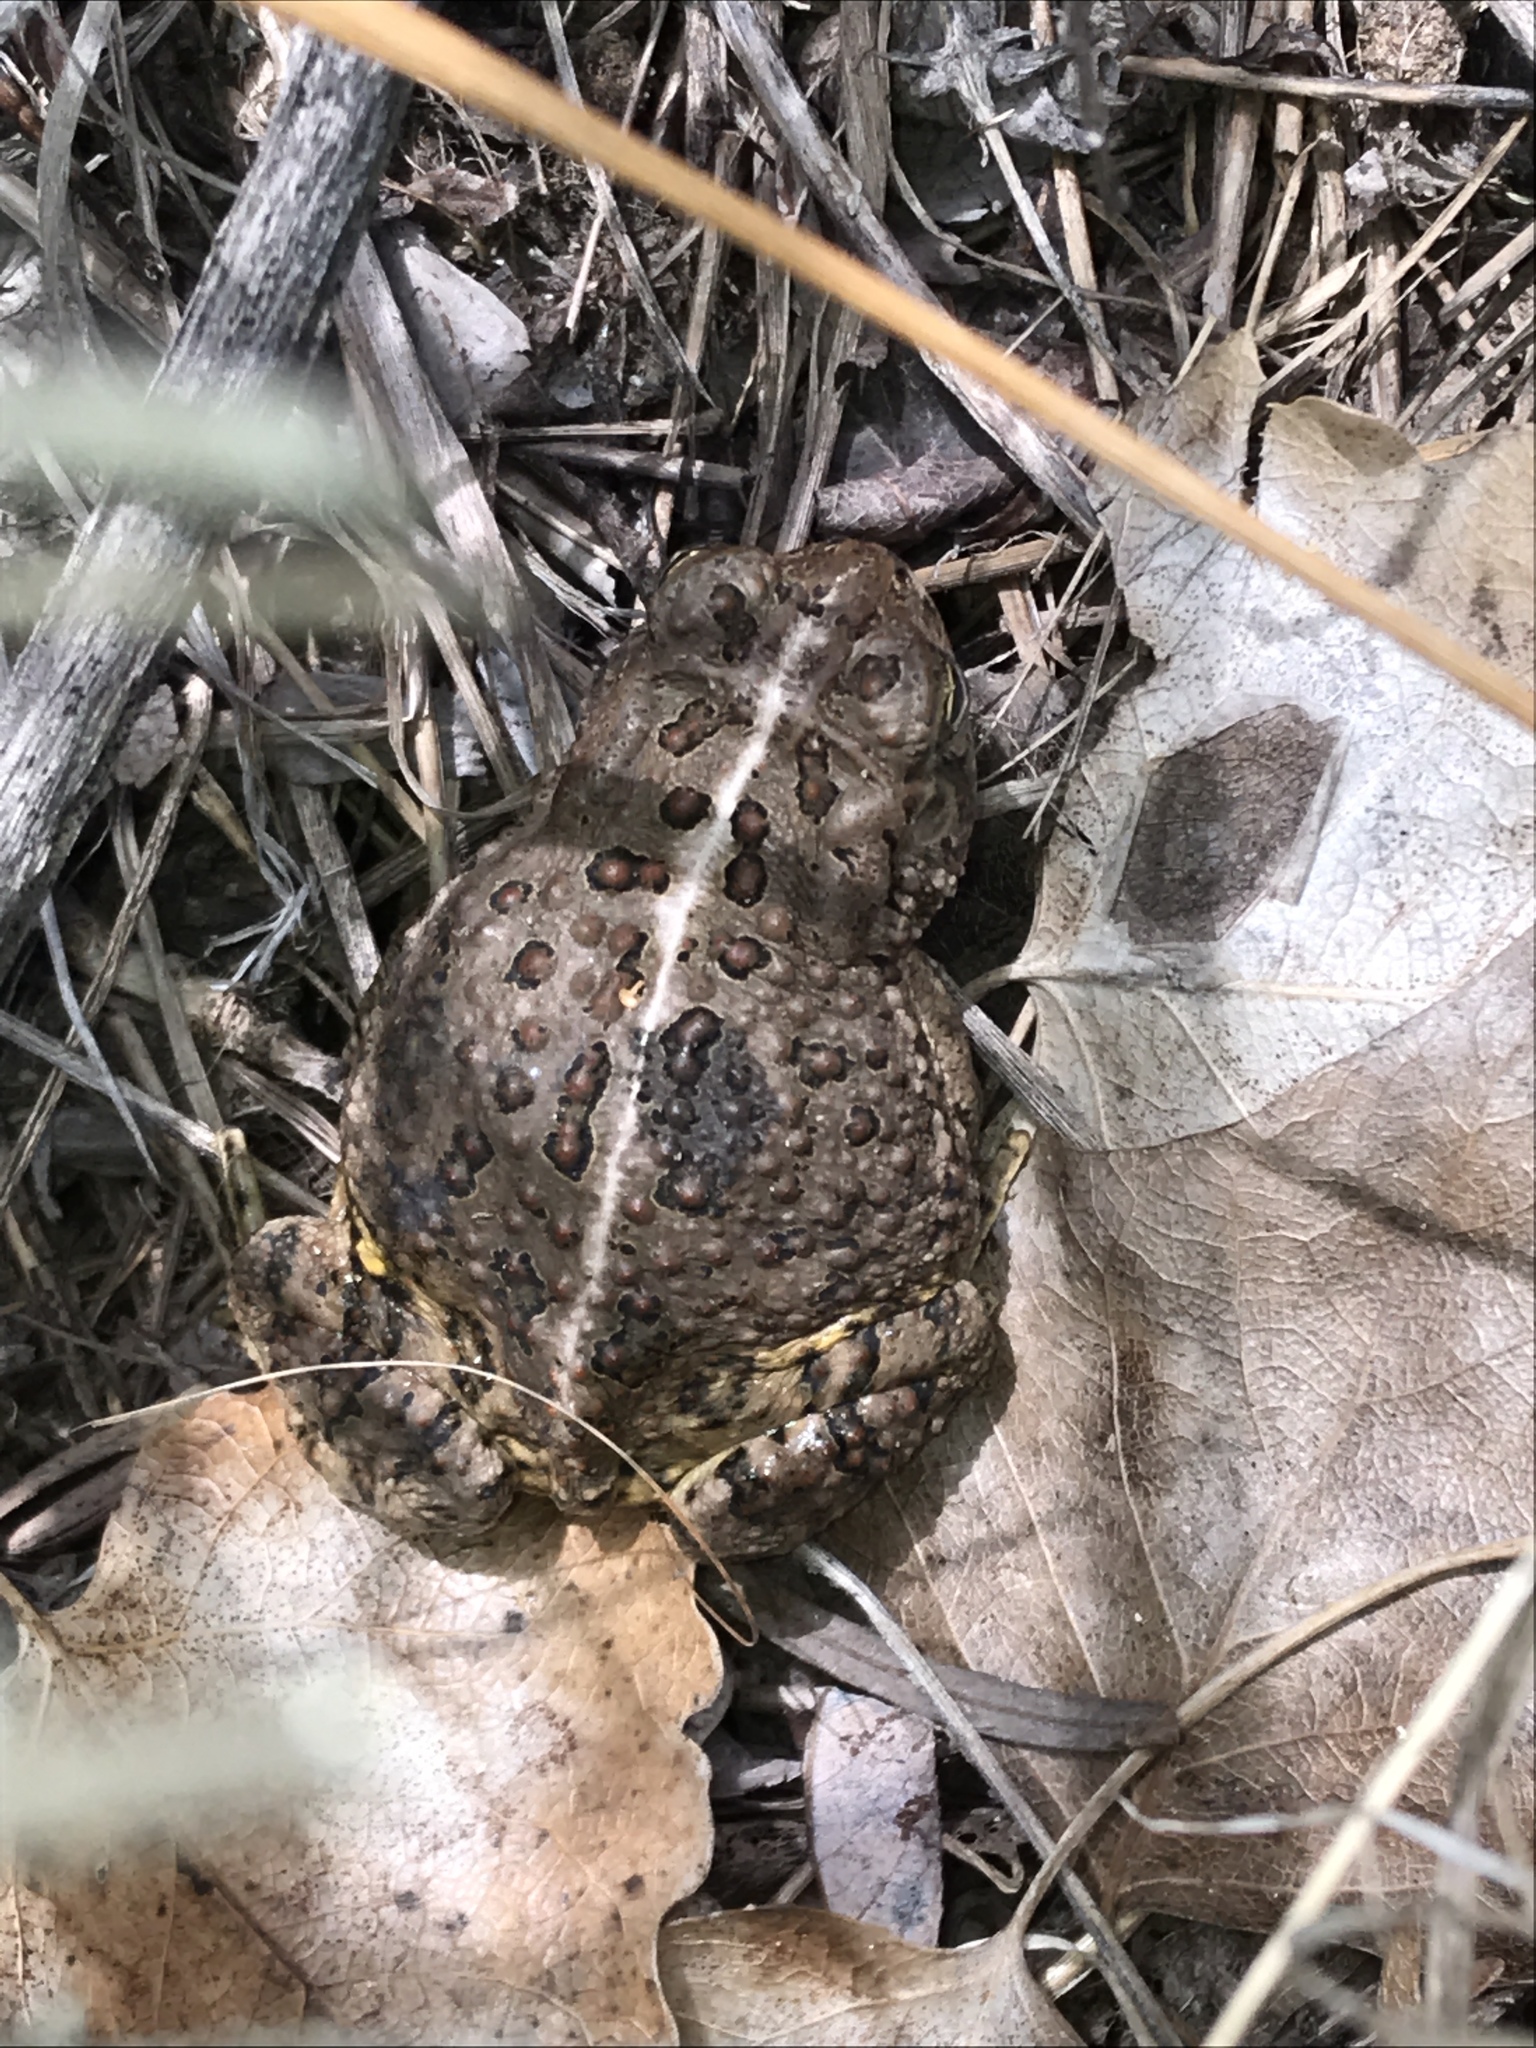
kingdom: Animalia
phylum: Chordata
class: Amphibia
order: Anura
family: Bufonidae
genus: Anaxyrus
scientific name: Anaxyrus woodhousii
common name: Woodhouse's toad
